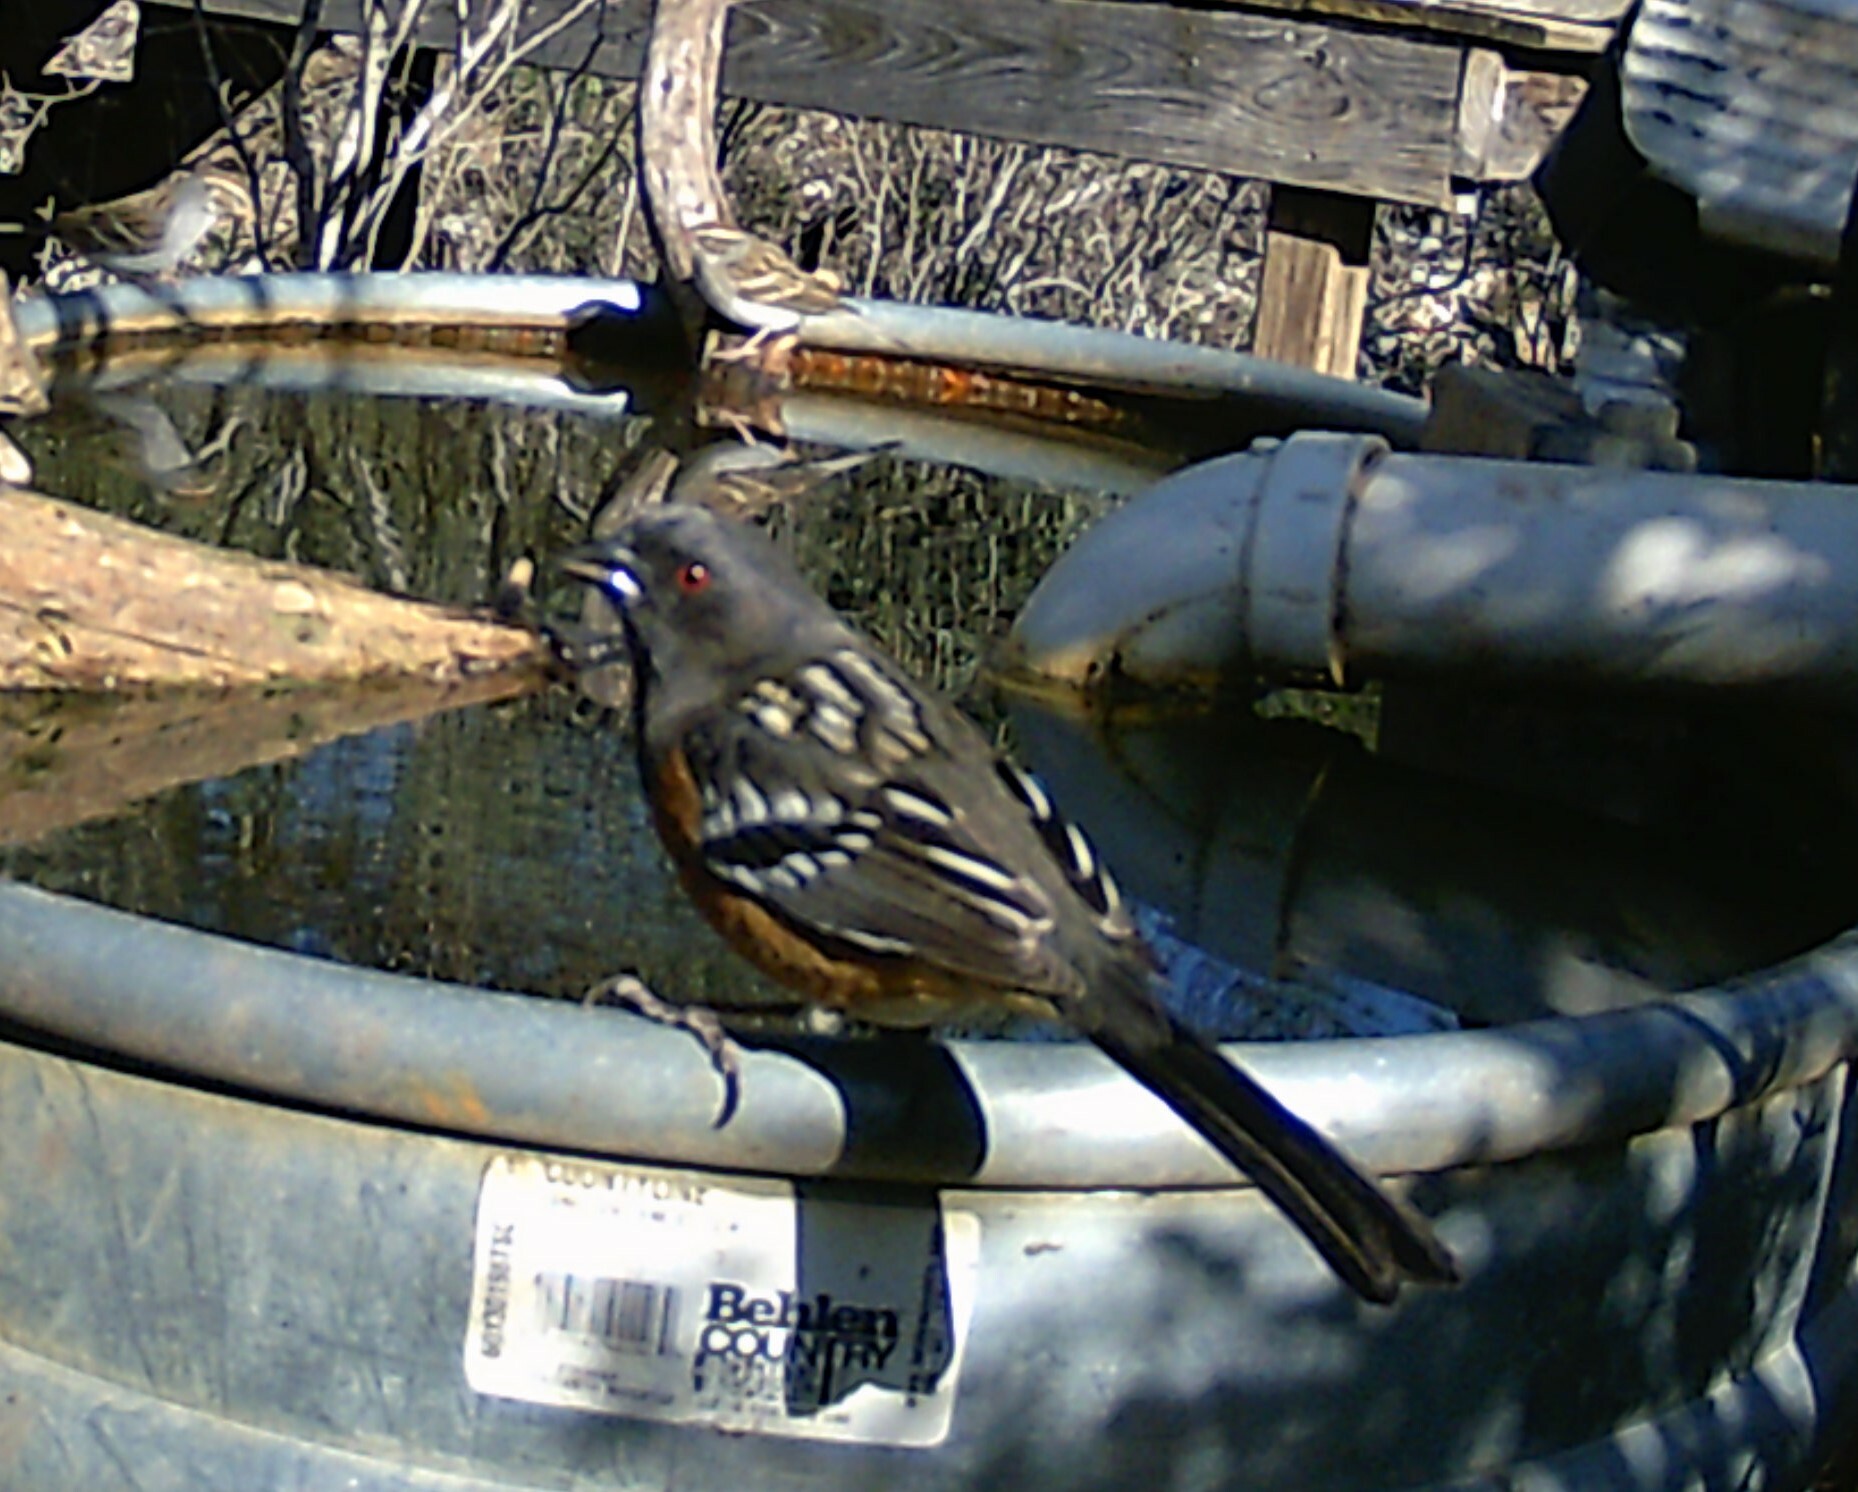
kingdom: Animalia
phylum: Chordata
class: Aves
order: Passeriformes
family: Passerellidae
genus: Pipilo
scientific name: Pipilo maculatus
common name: Spotted towhee
